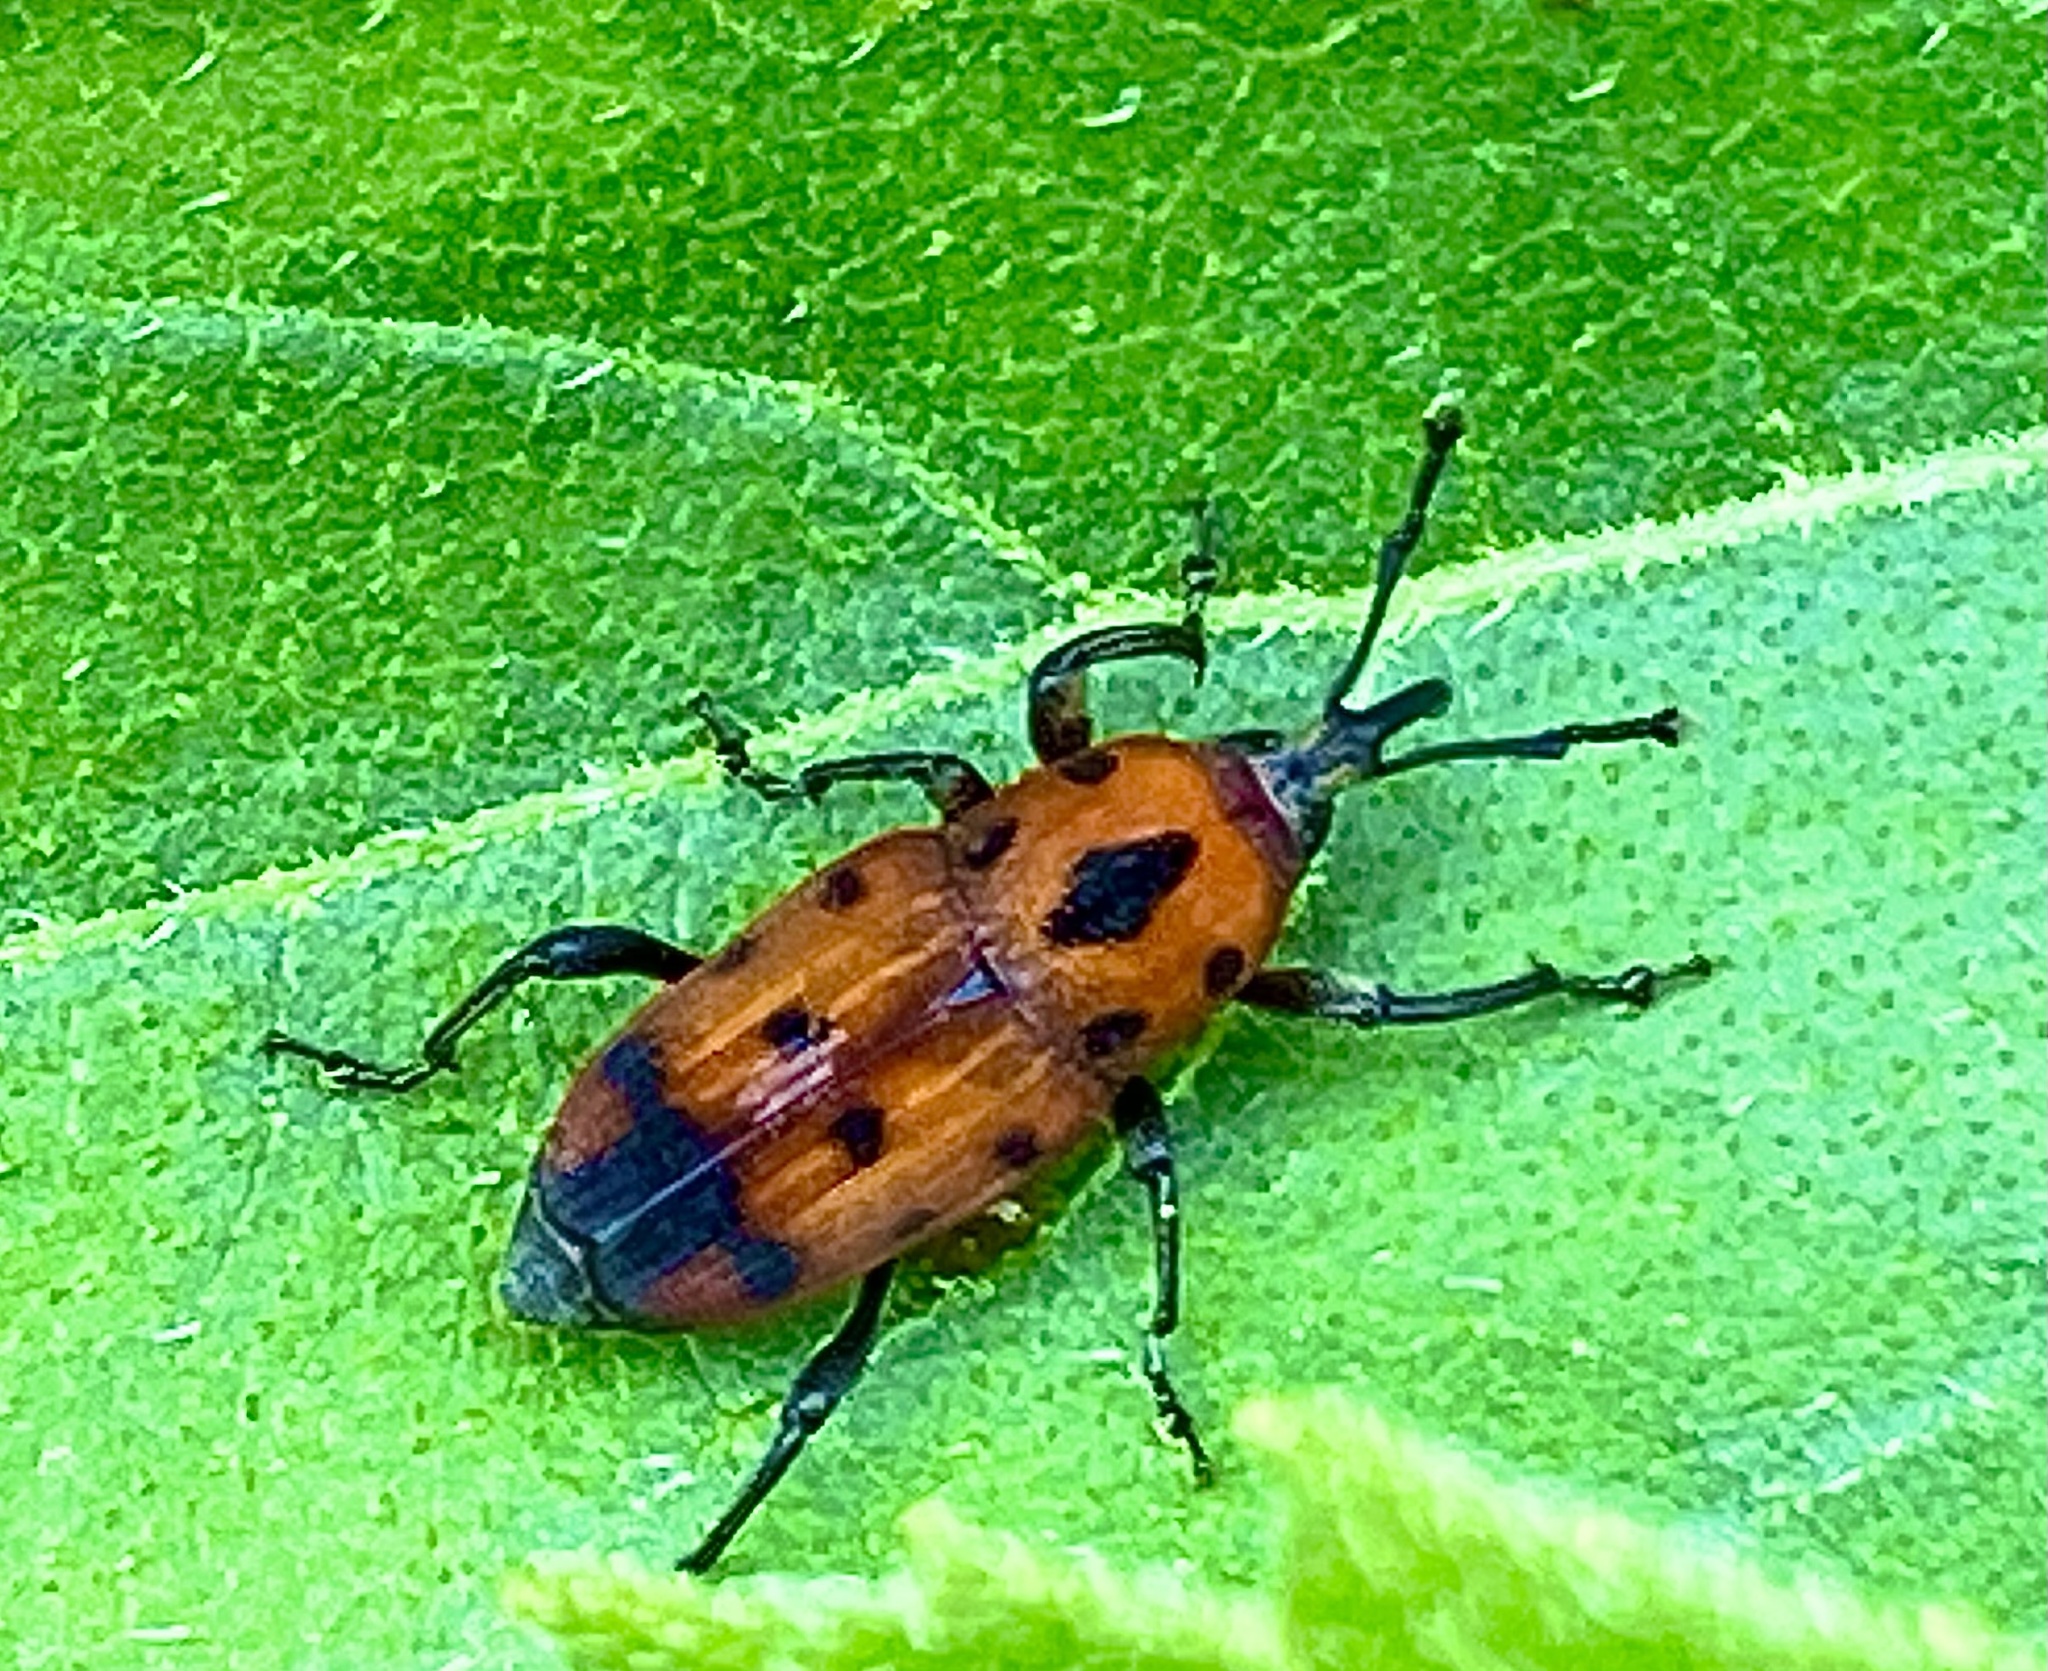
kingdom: Animalia
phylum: Arthropoda
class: Insecta
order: Coleoptera
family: Dryophthoridae
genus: Rhodobaenus
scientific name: Rhodobaenus quinquepunctatus
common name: Cocklebur weevil
